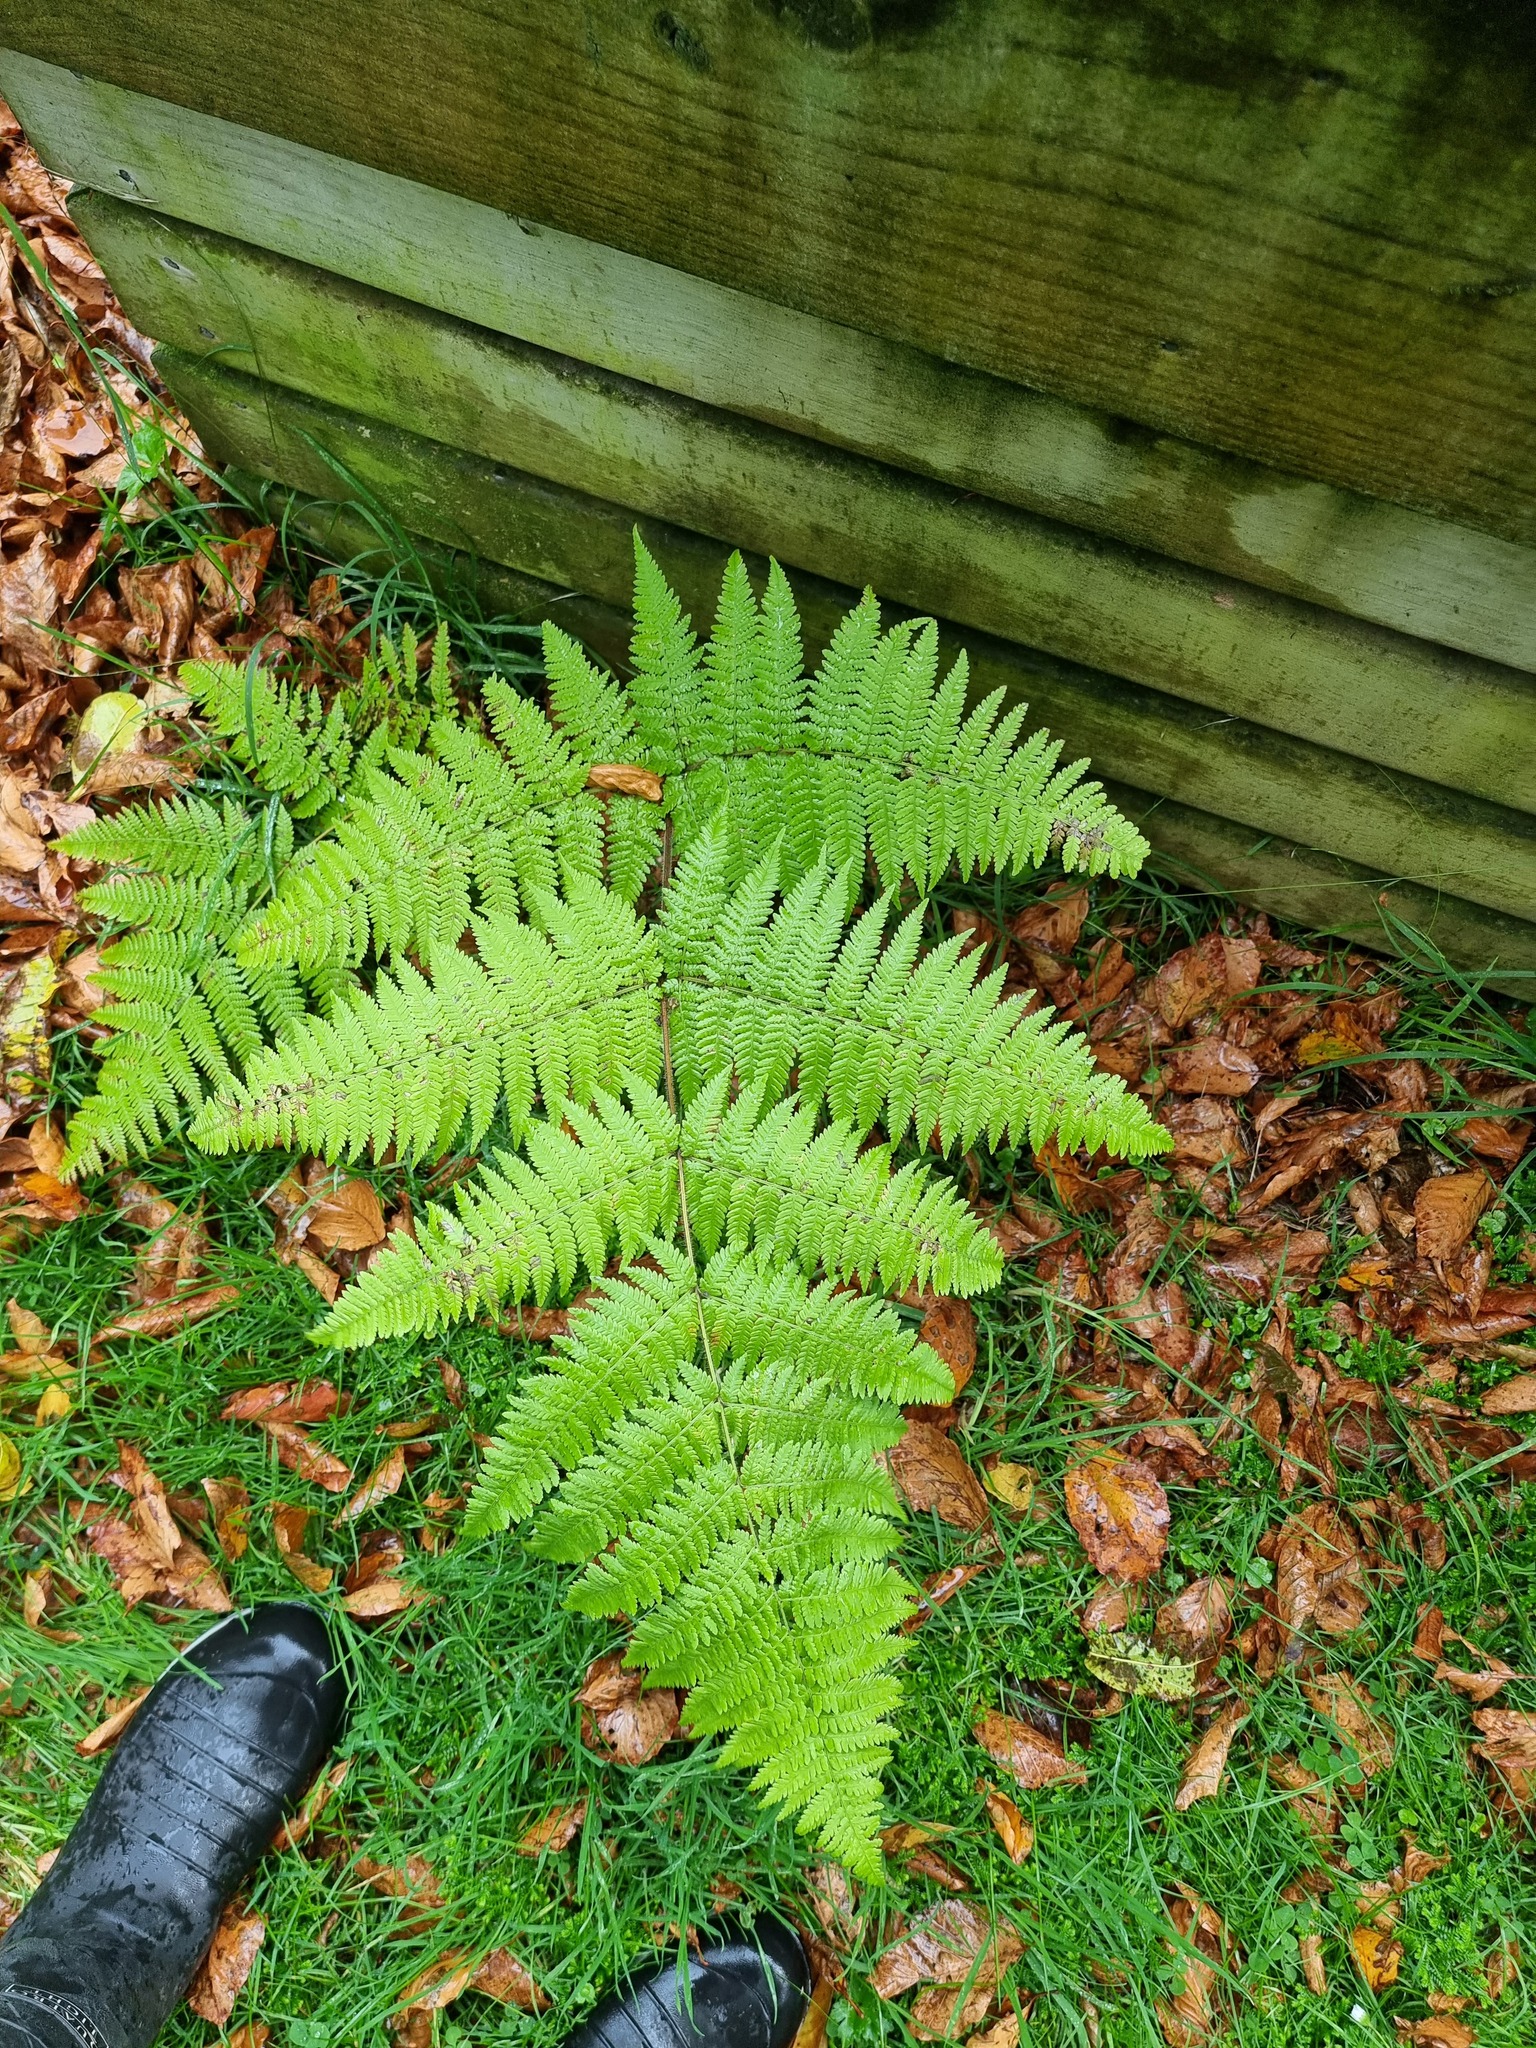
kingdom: Plantae
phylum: Tracheophyta
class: Polypodiopsida
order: Polypodiales
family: Dennstaedtiaceae
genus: Hypolepis
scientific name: Hypolepis ambigua
